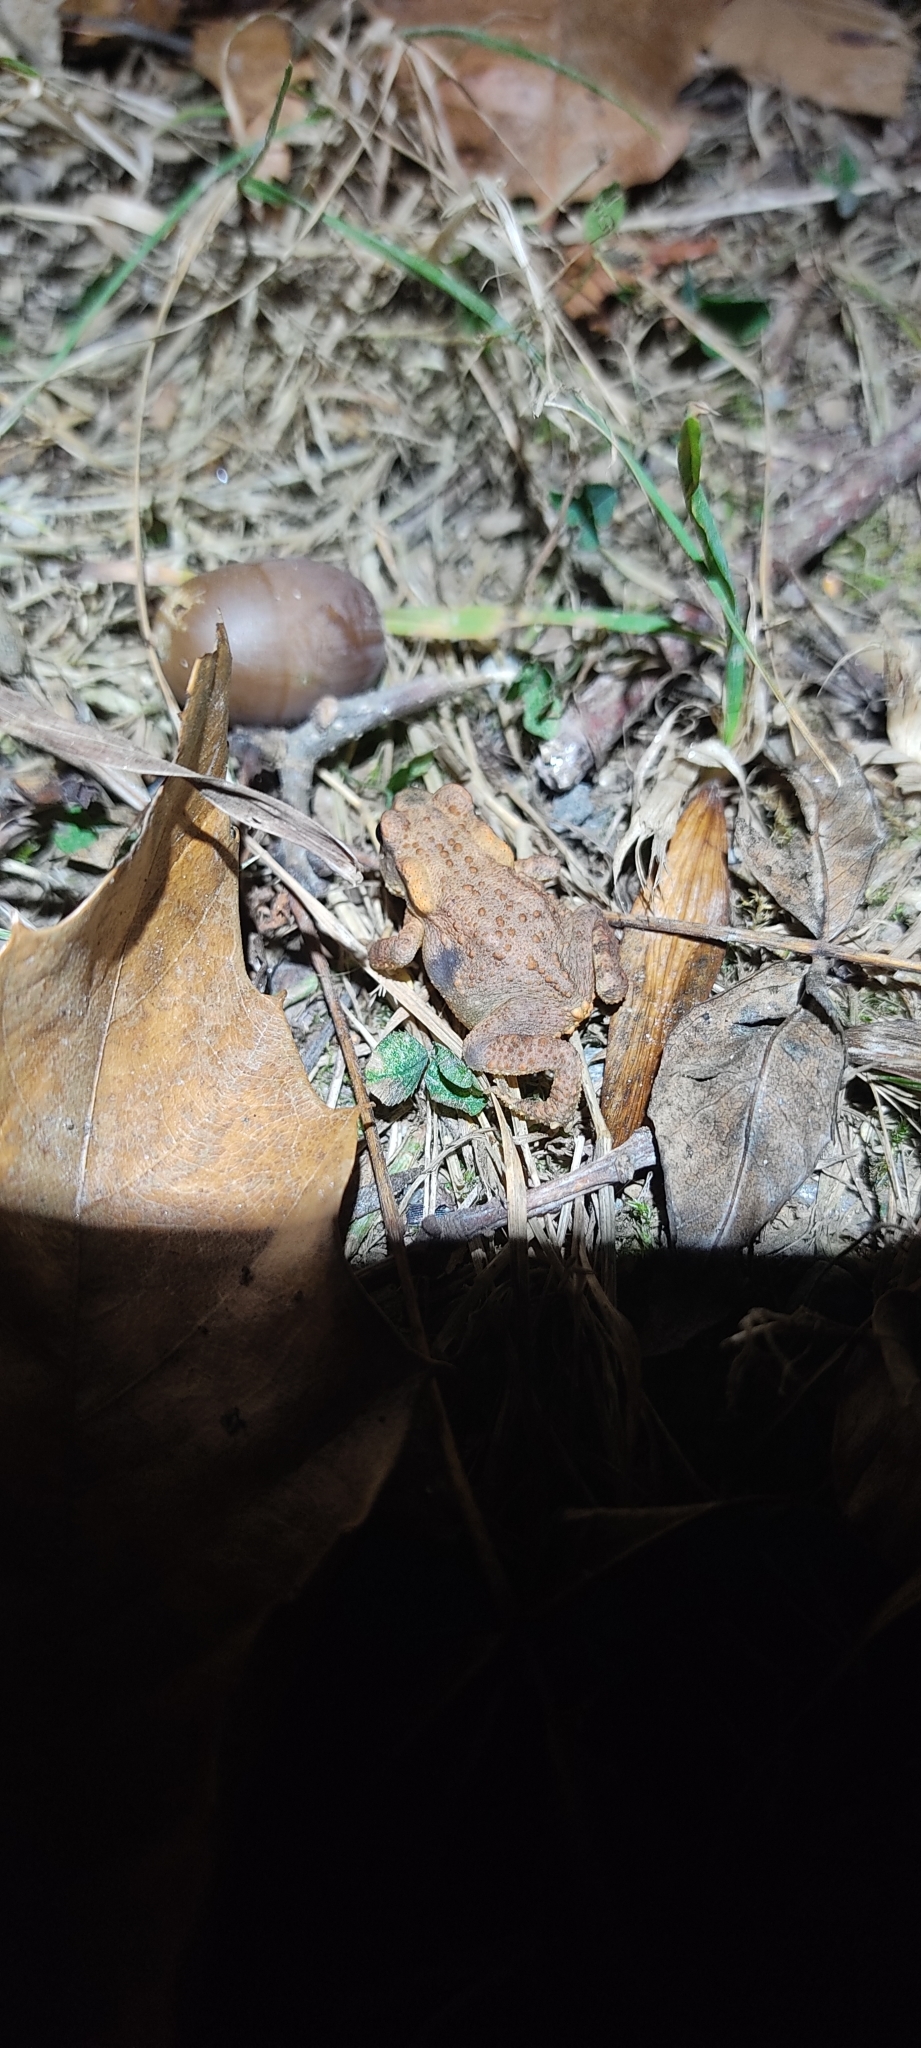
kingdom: Animalia
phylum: Chordata
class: Amphibia
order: Anura
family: Bufonidae
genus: Bufo
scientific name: Bufo spinosus
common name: Western common toad
